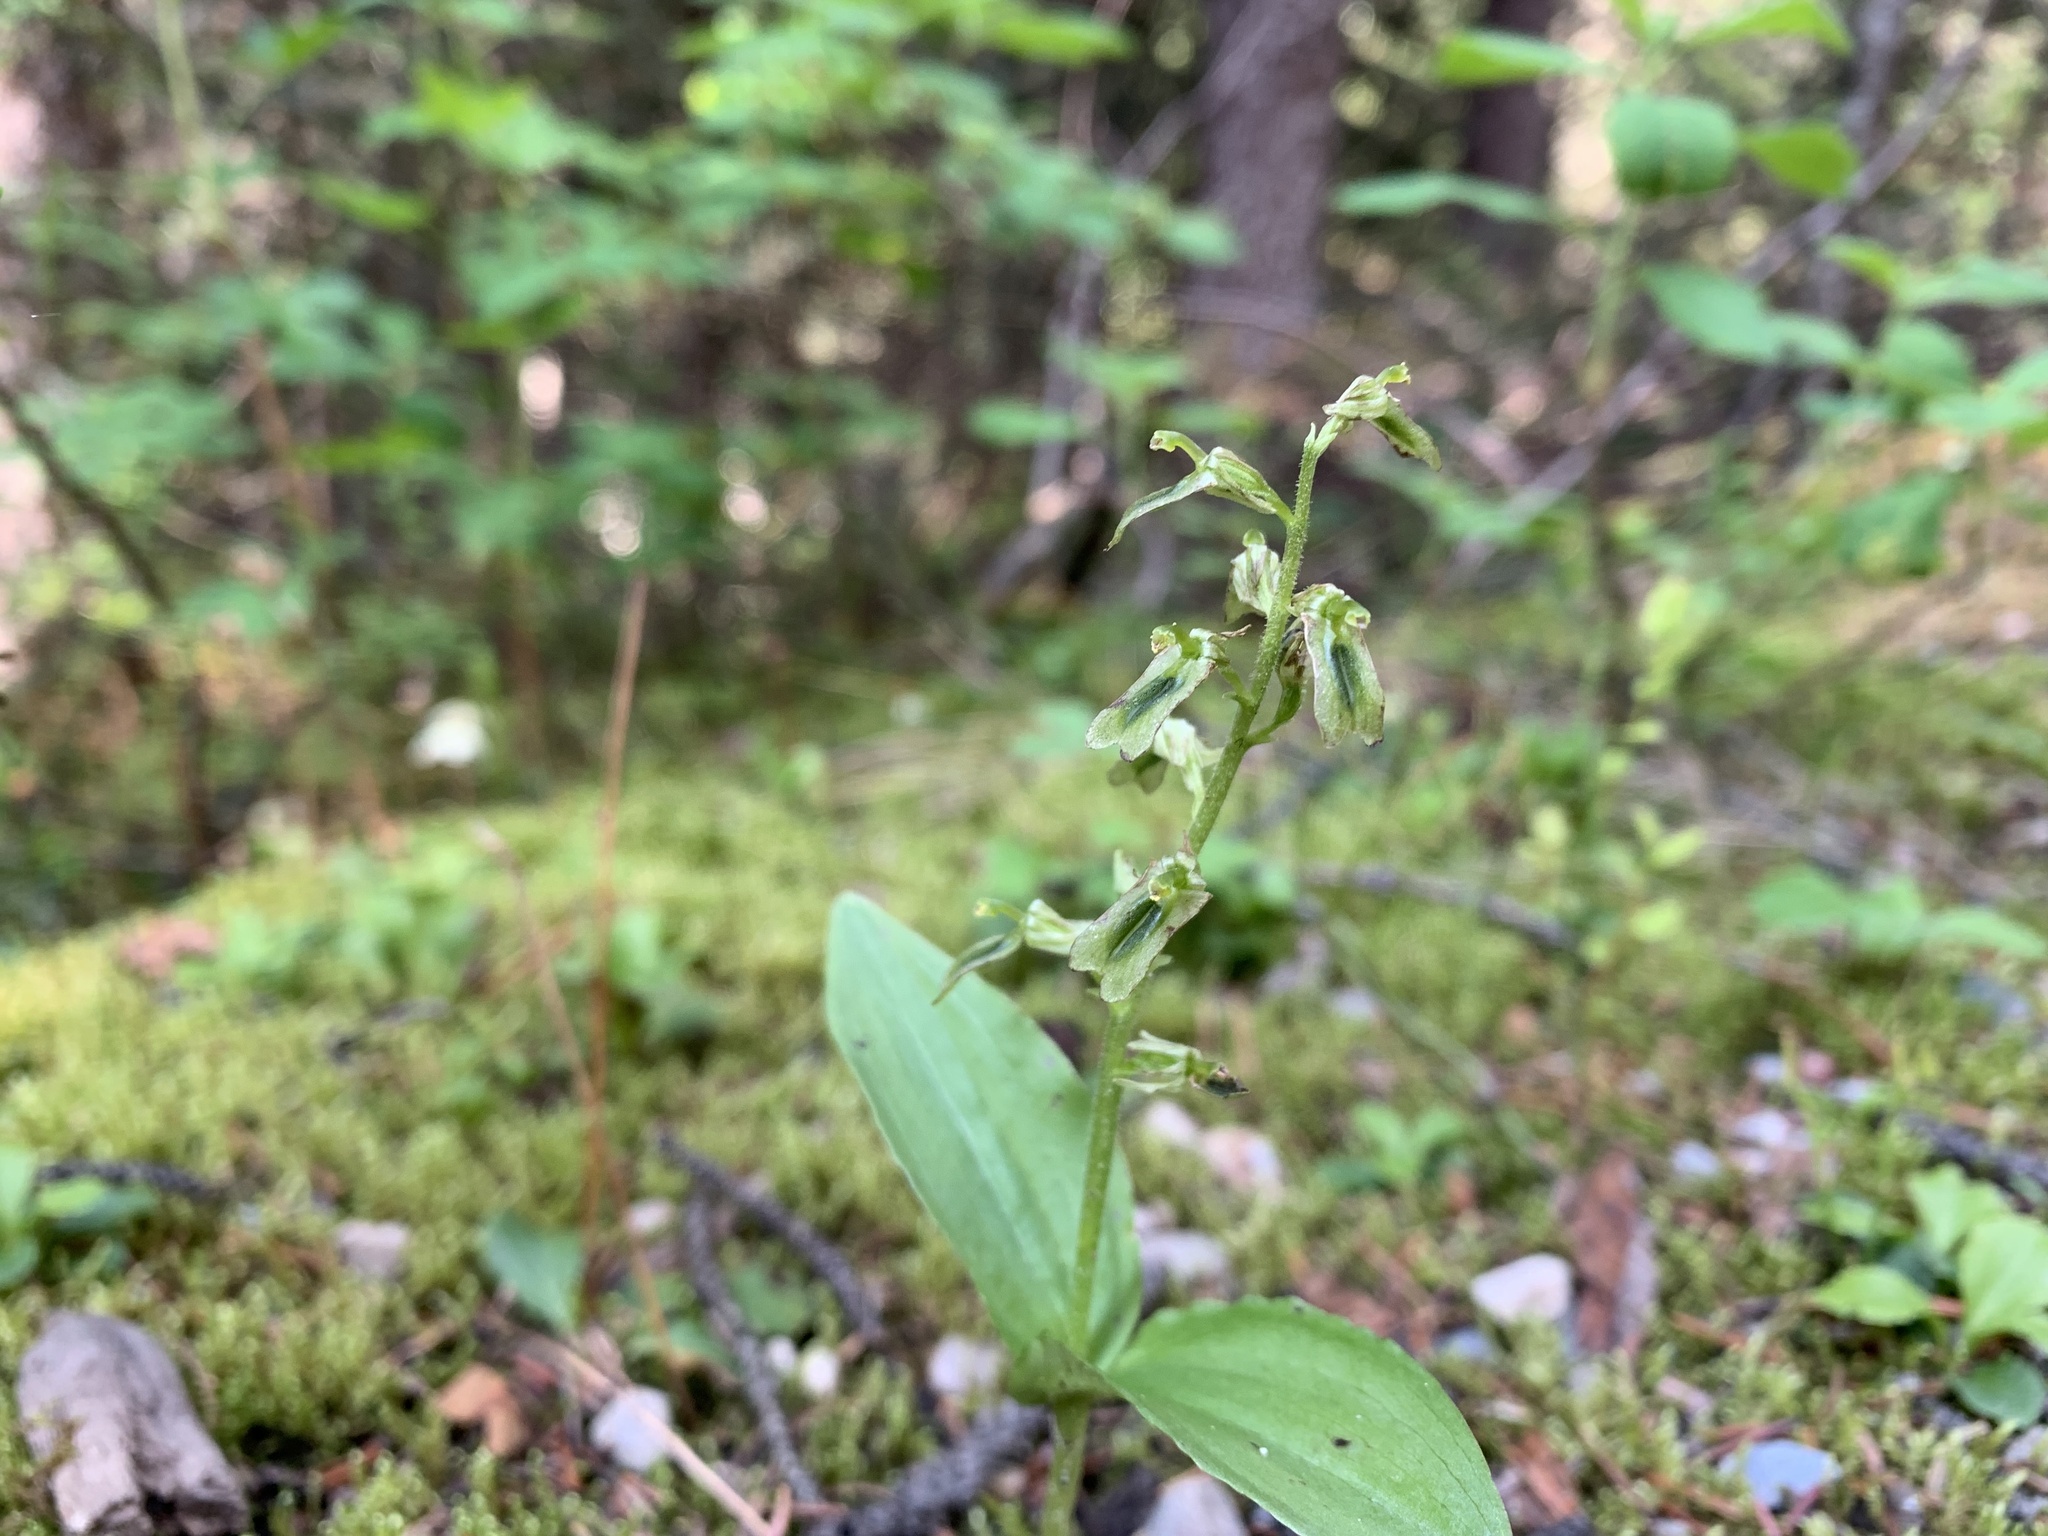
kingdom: Plantae
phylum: Tracheophyta
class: Liliopsida
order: Asparagales
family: Orchidaceae
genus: Neottia
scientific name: Neottia borealis
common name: Northern twayblade
